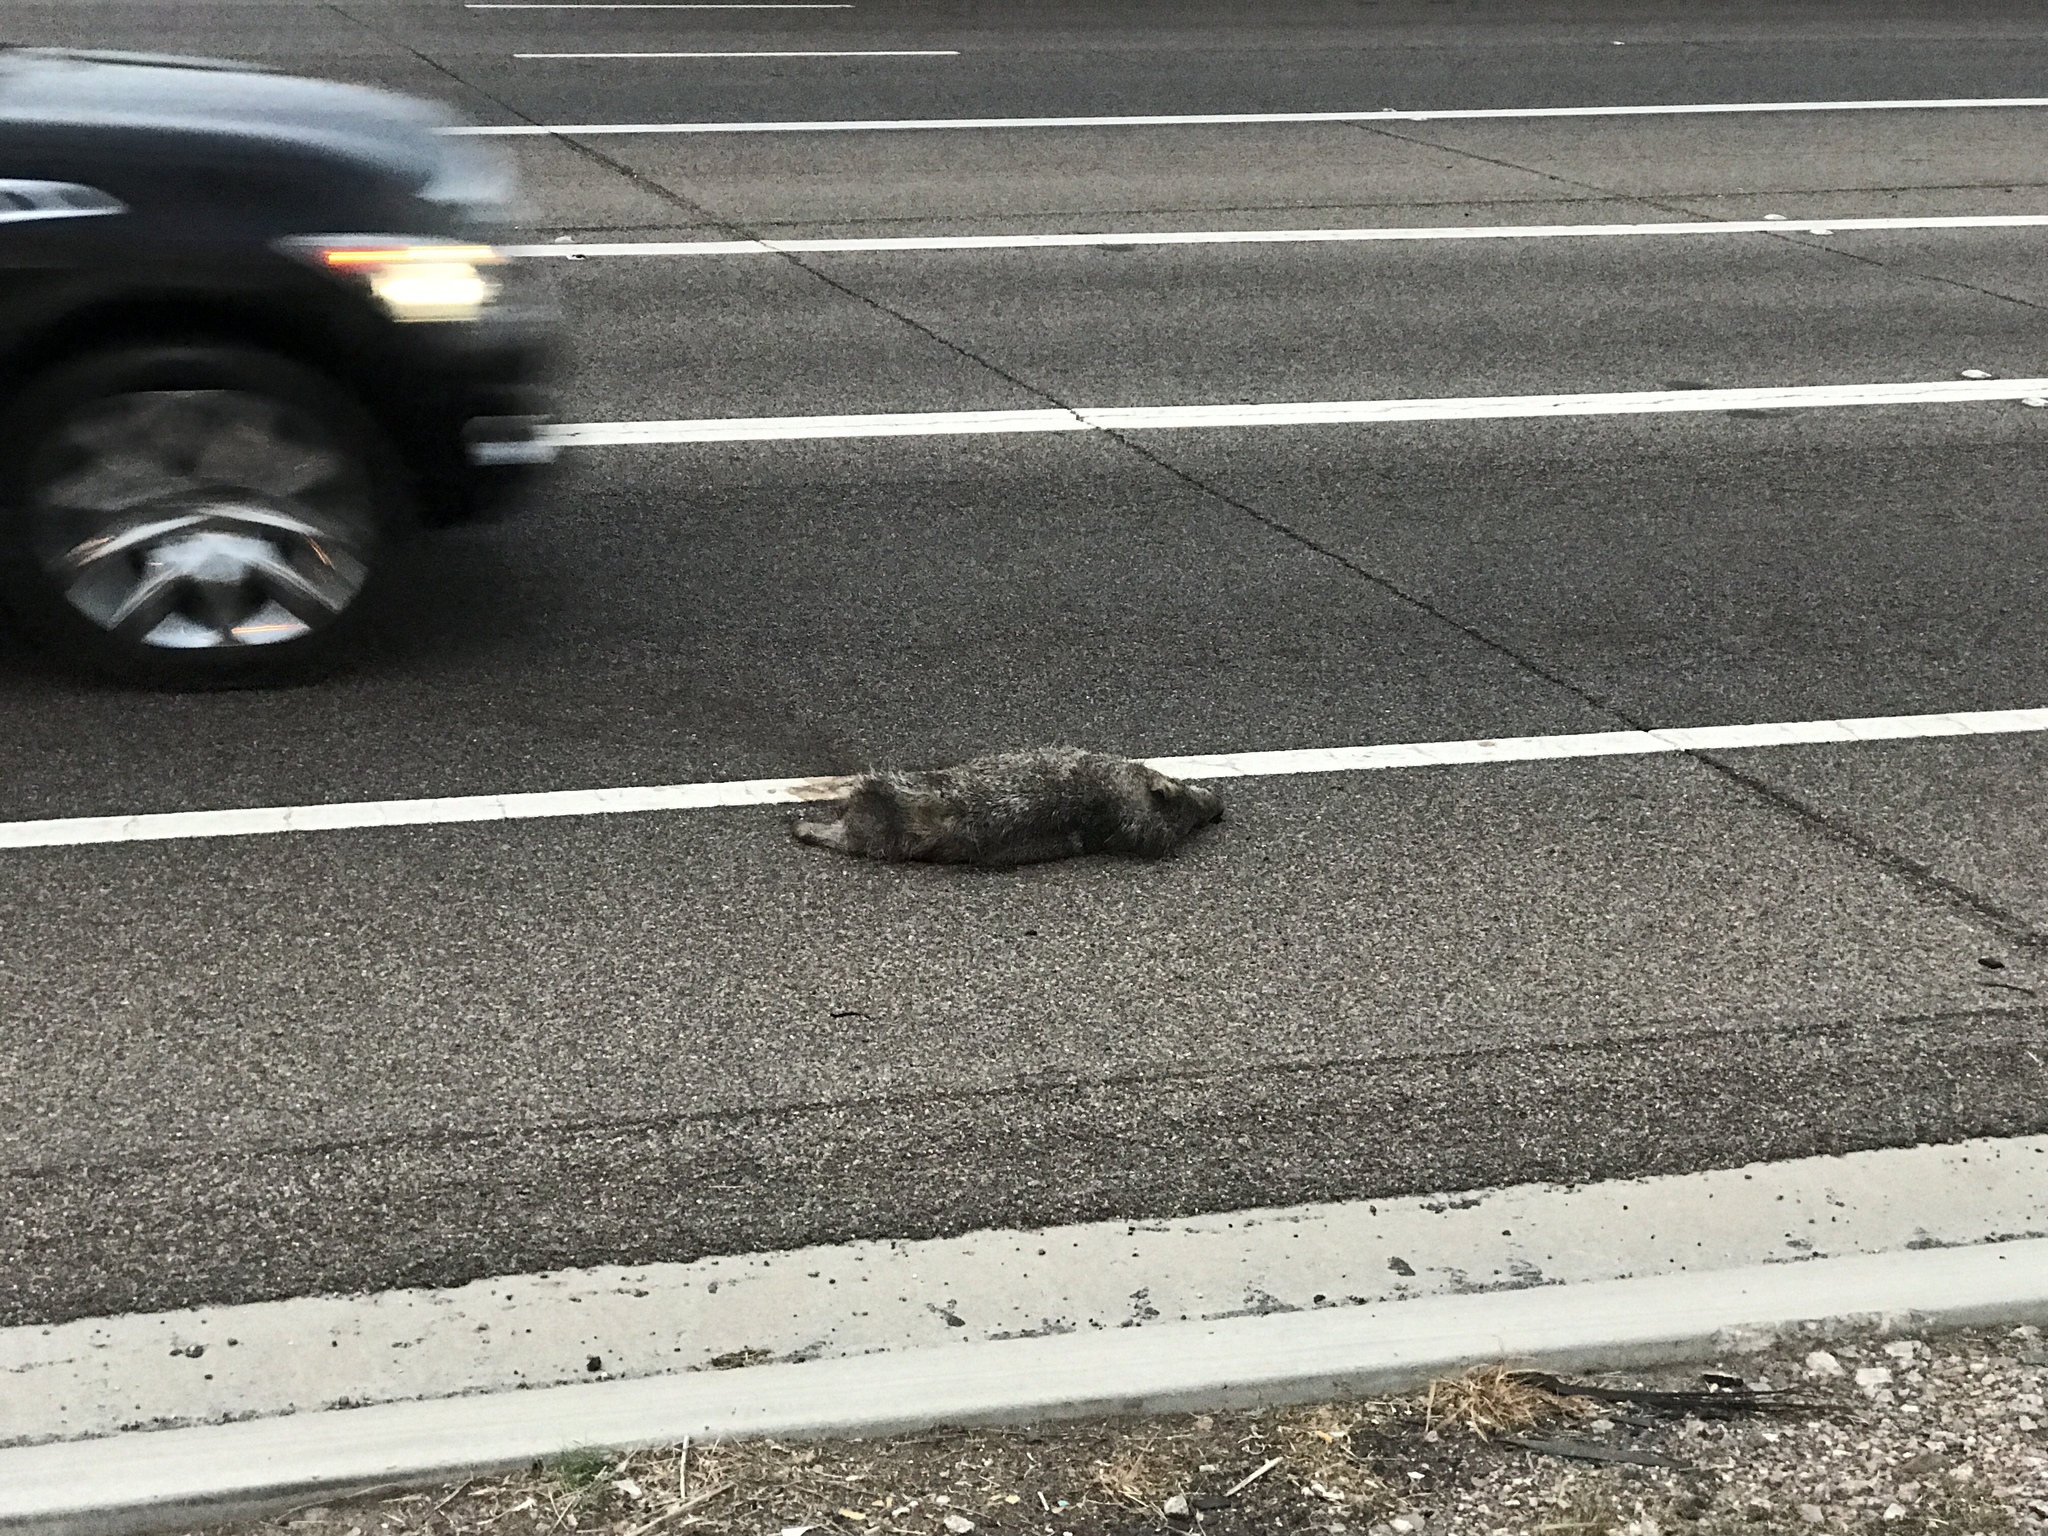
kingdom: Animalia
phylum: Chordata
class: Mammalia
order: Artiodactyla
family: Tayassuidae
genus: Pecari
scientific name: Pecari tajacu
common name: Collared peccary
